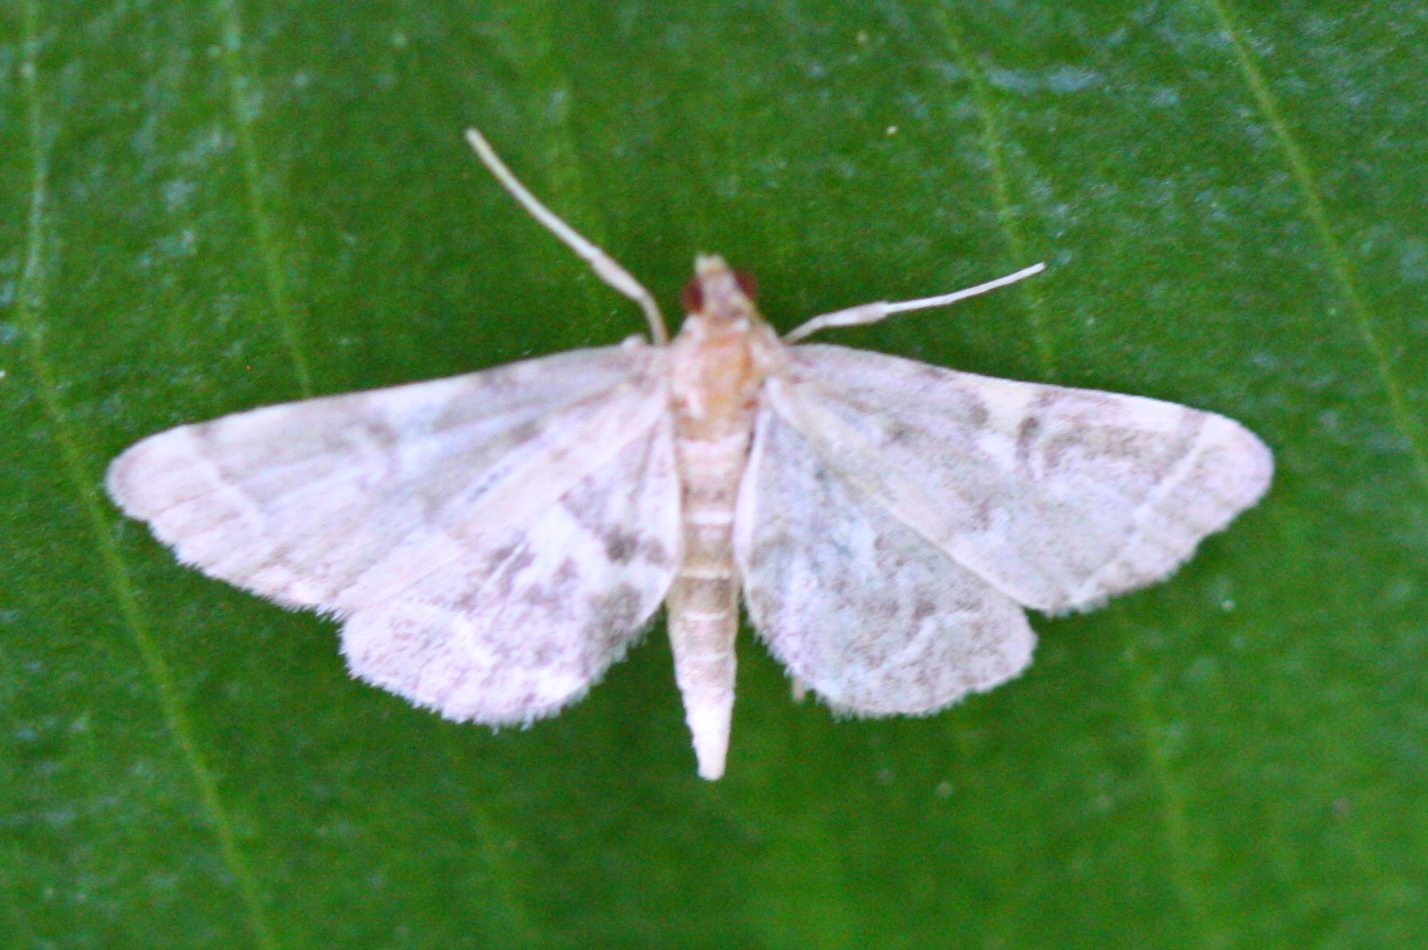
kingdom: Animalia
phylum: Arthropoda
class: Insecta
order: Lepidoptera
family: Crambidae
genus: Anageshna
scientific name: Anageshna primordialis
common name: Yellow-spotted webworm moth
